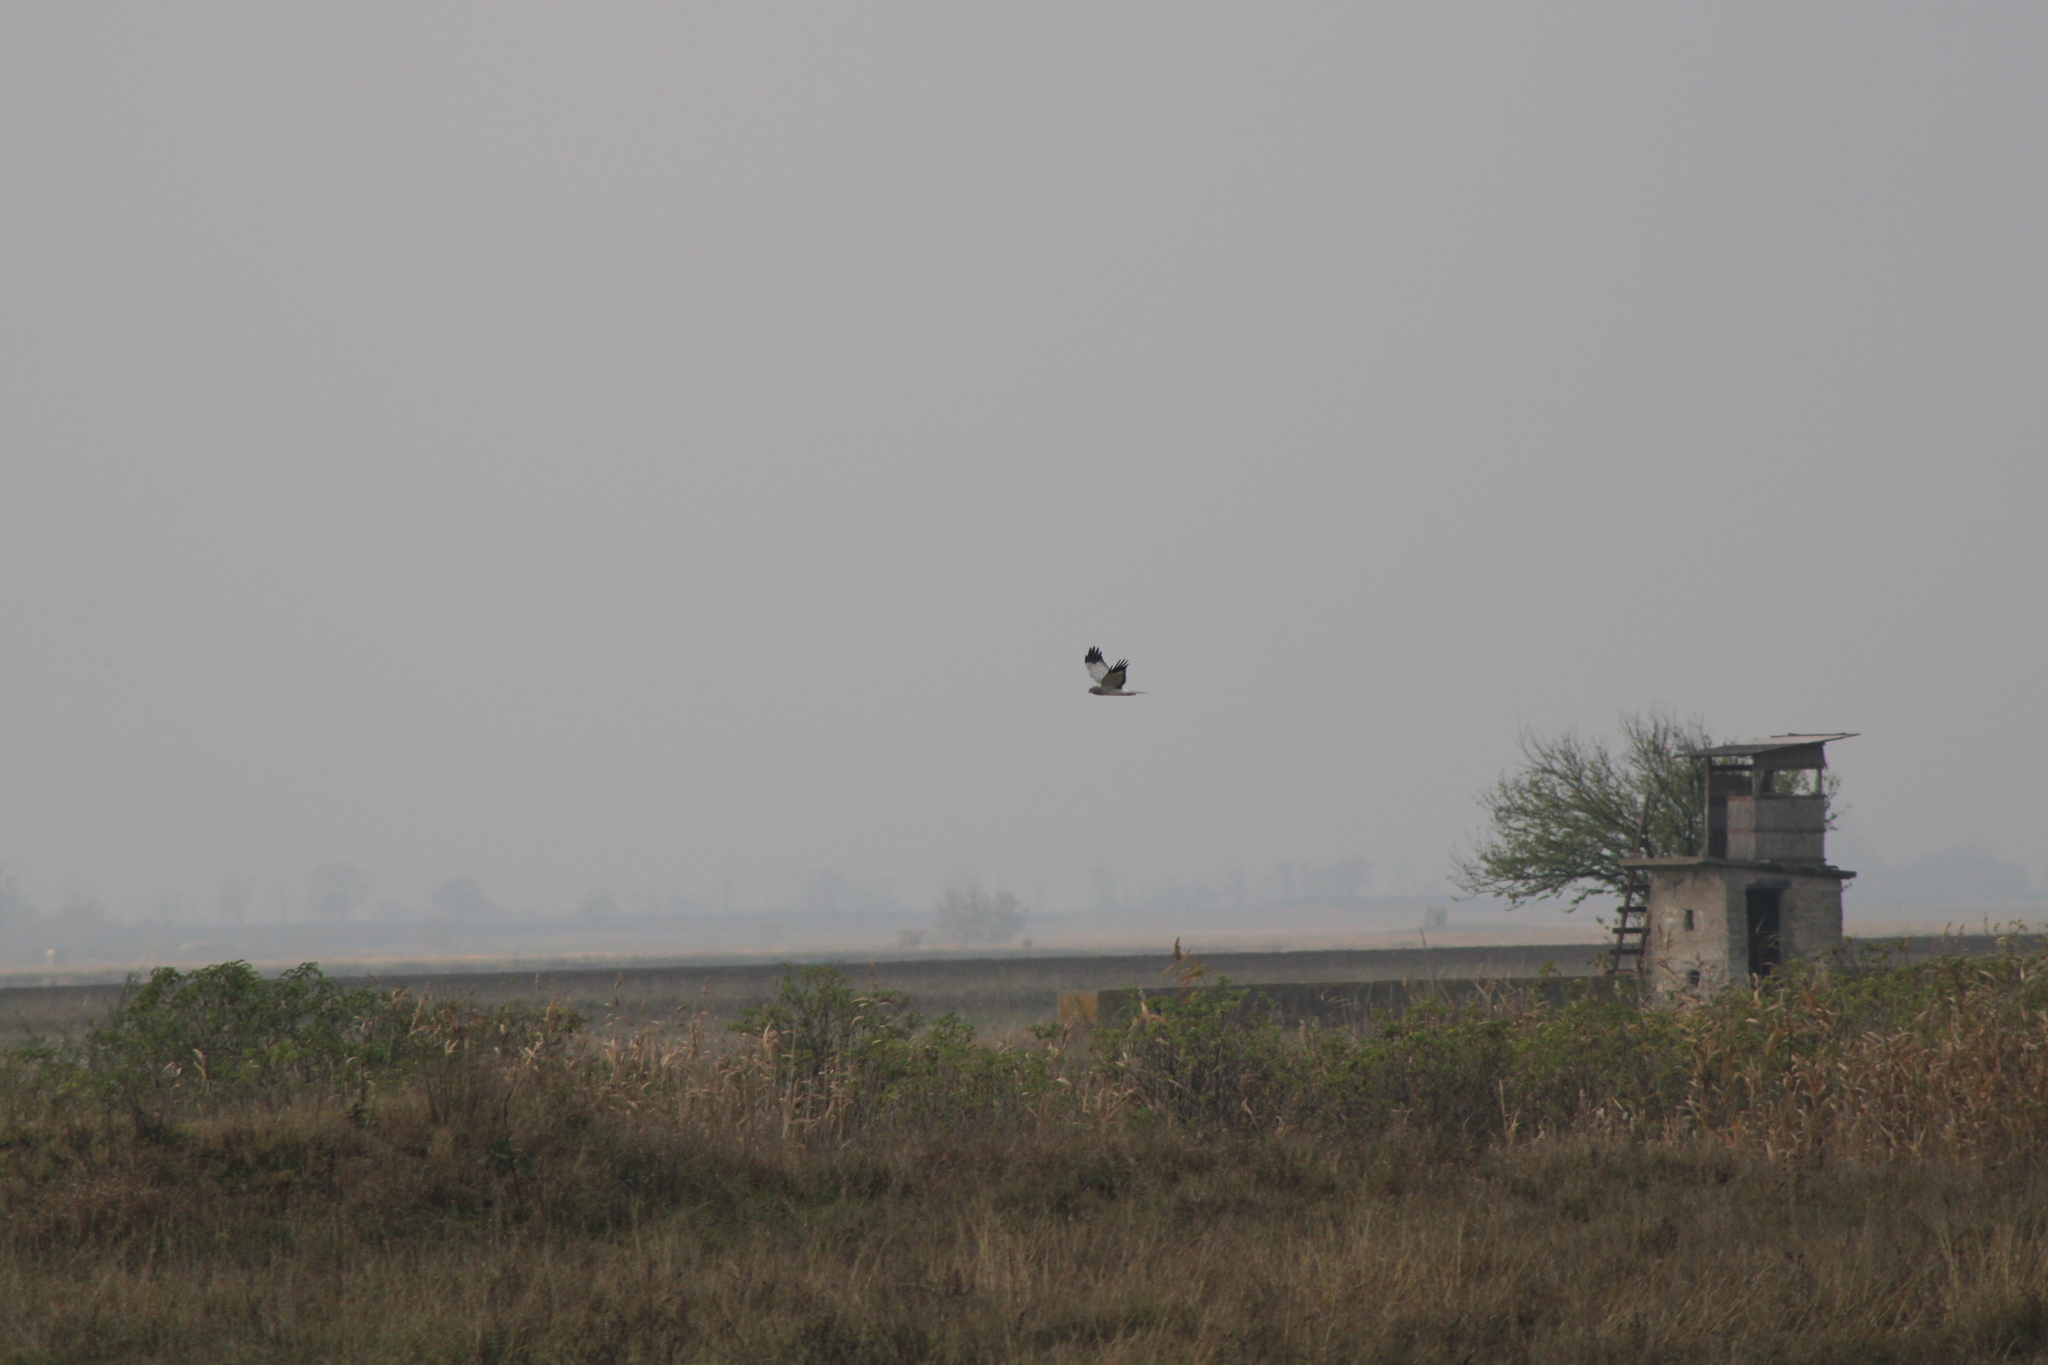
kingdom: Animalia
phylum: Chordata
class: Aves
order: Accipitriformes
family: Accipitridae
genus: Circus
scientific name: Circus cyaneus
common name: Hen harrier
